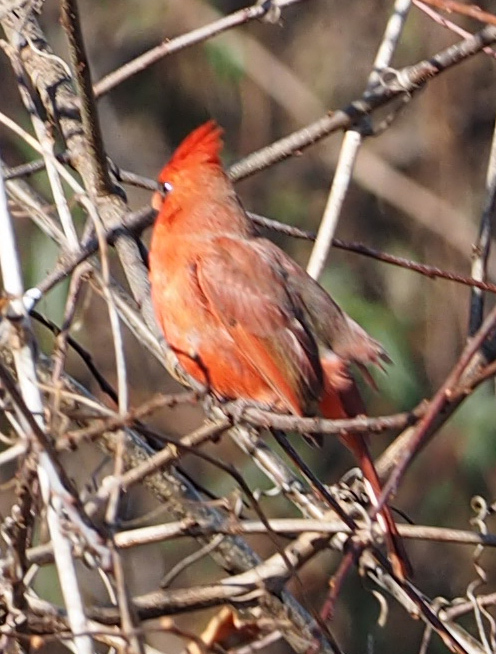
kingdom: Animalia
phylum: Chordata
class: Aves
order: Passeriformes
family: Cardinalidae
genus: Cardinalis
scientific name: Cardinalis cardinalis
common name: Northern cardinal
